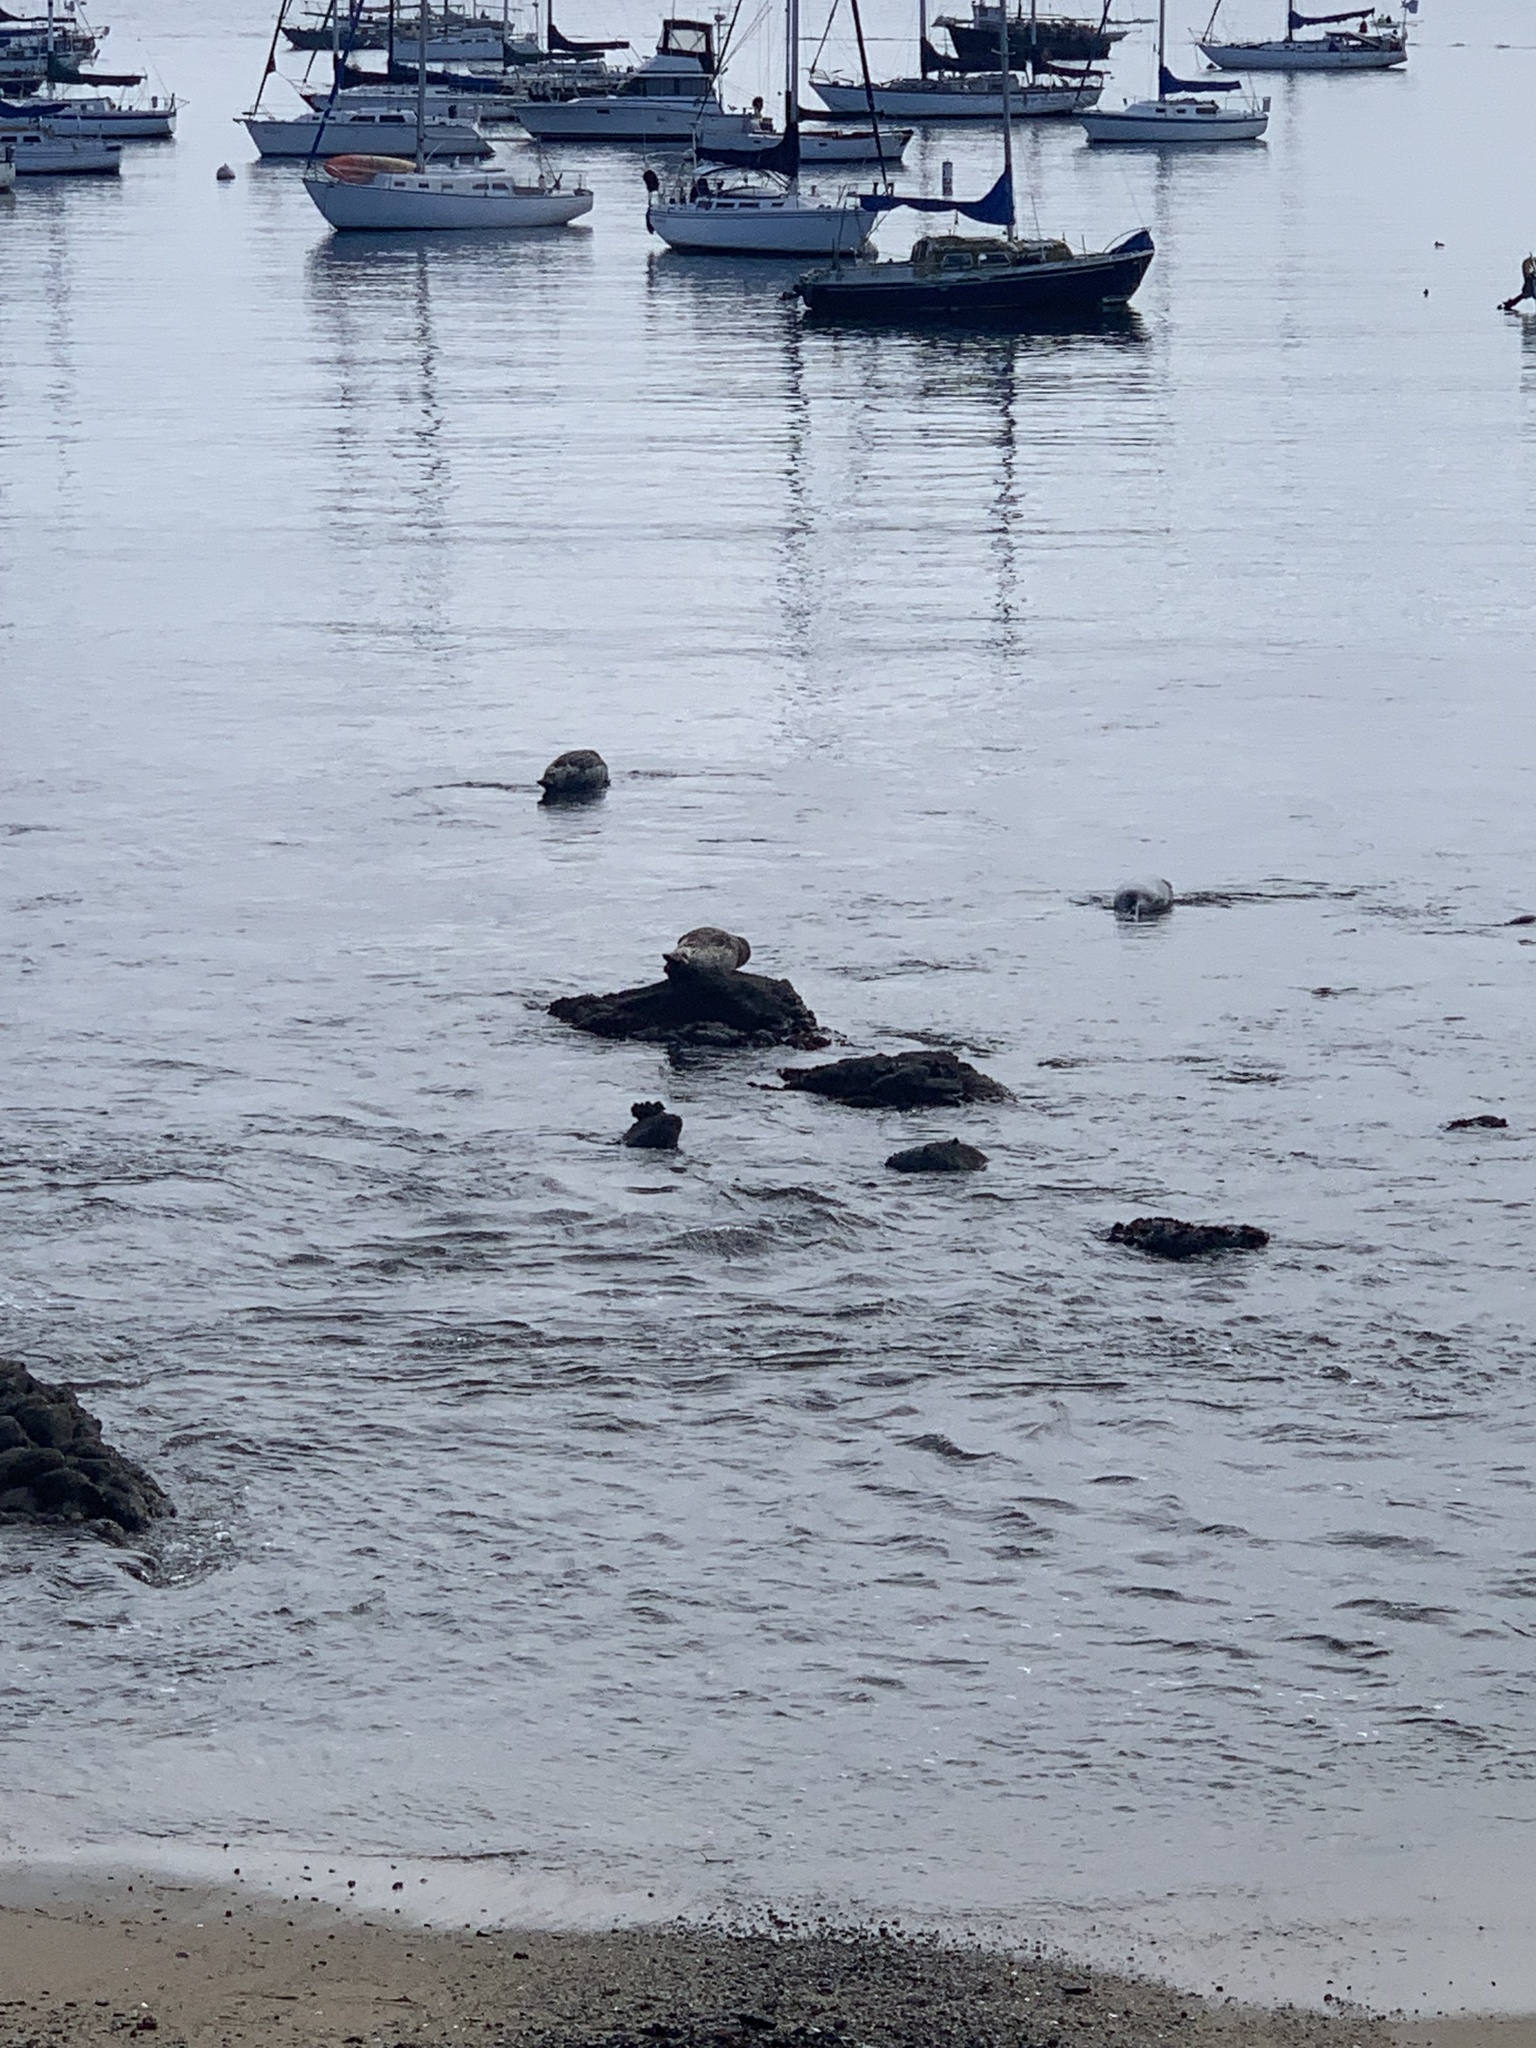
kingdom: Animalia
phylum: Chordata
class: Mammalia
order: Carnivora
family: Phocidae
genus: Phoca
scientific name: Phoca vitulina
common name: Harbor seal
